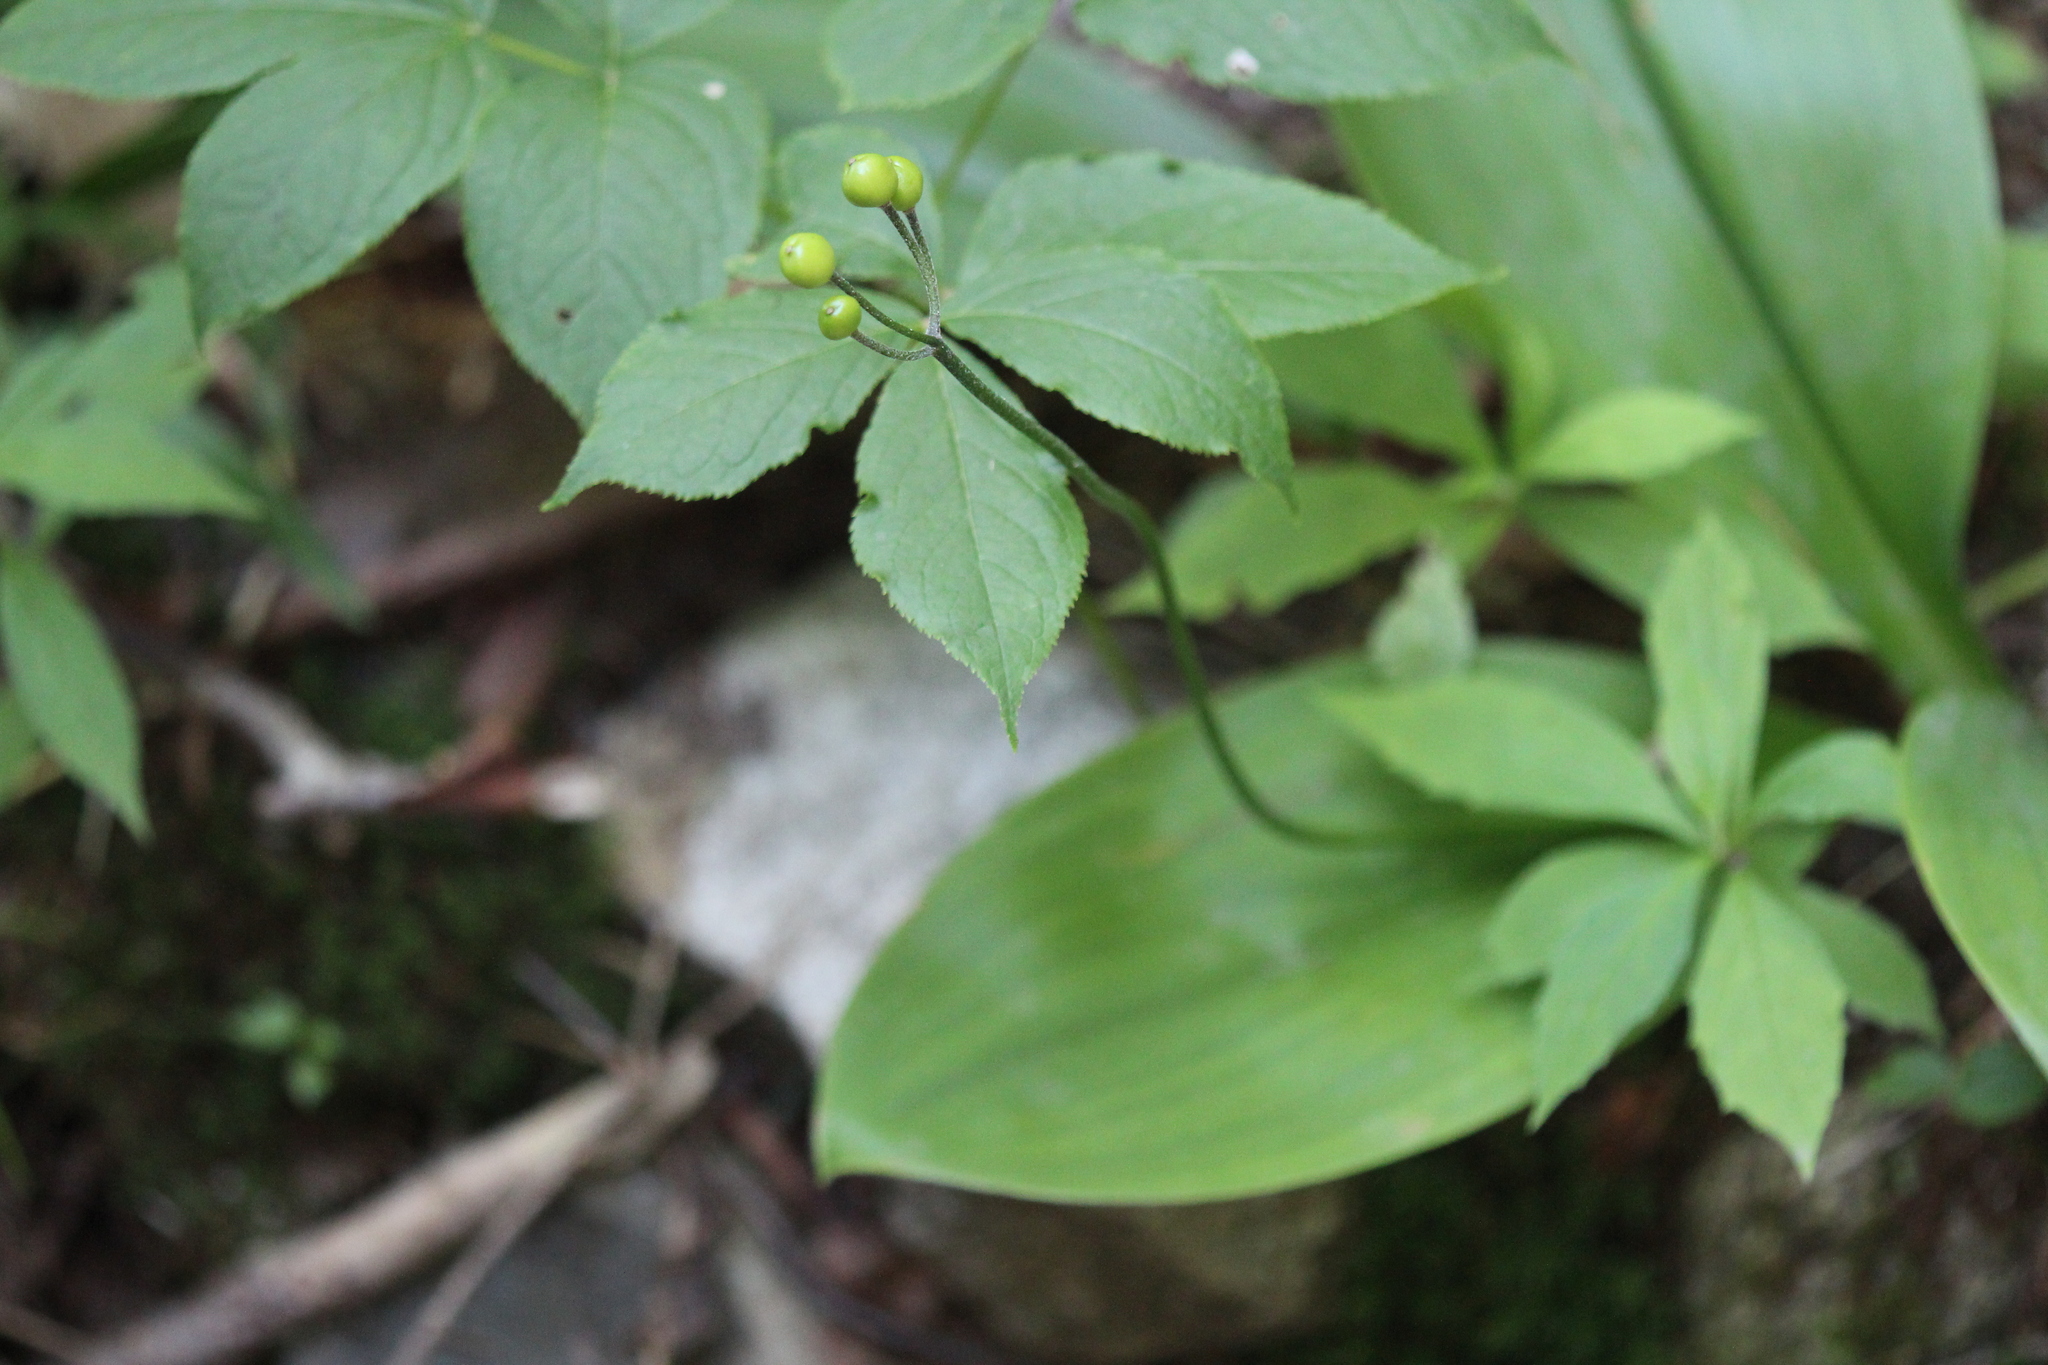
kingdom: Plantae
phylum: Tracheophyta
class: Liliopsida
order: Liliales
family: Liliaceae
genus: Clintonia
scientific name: Clintonia borealis
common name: Yellow clintonia
